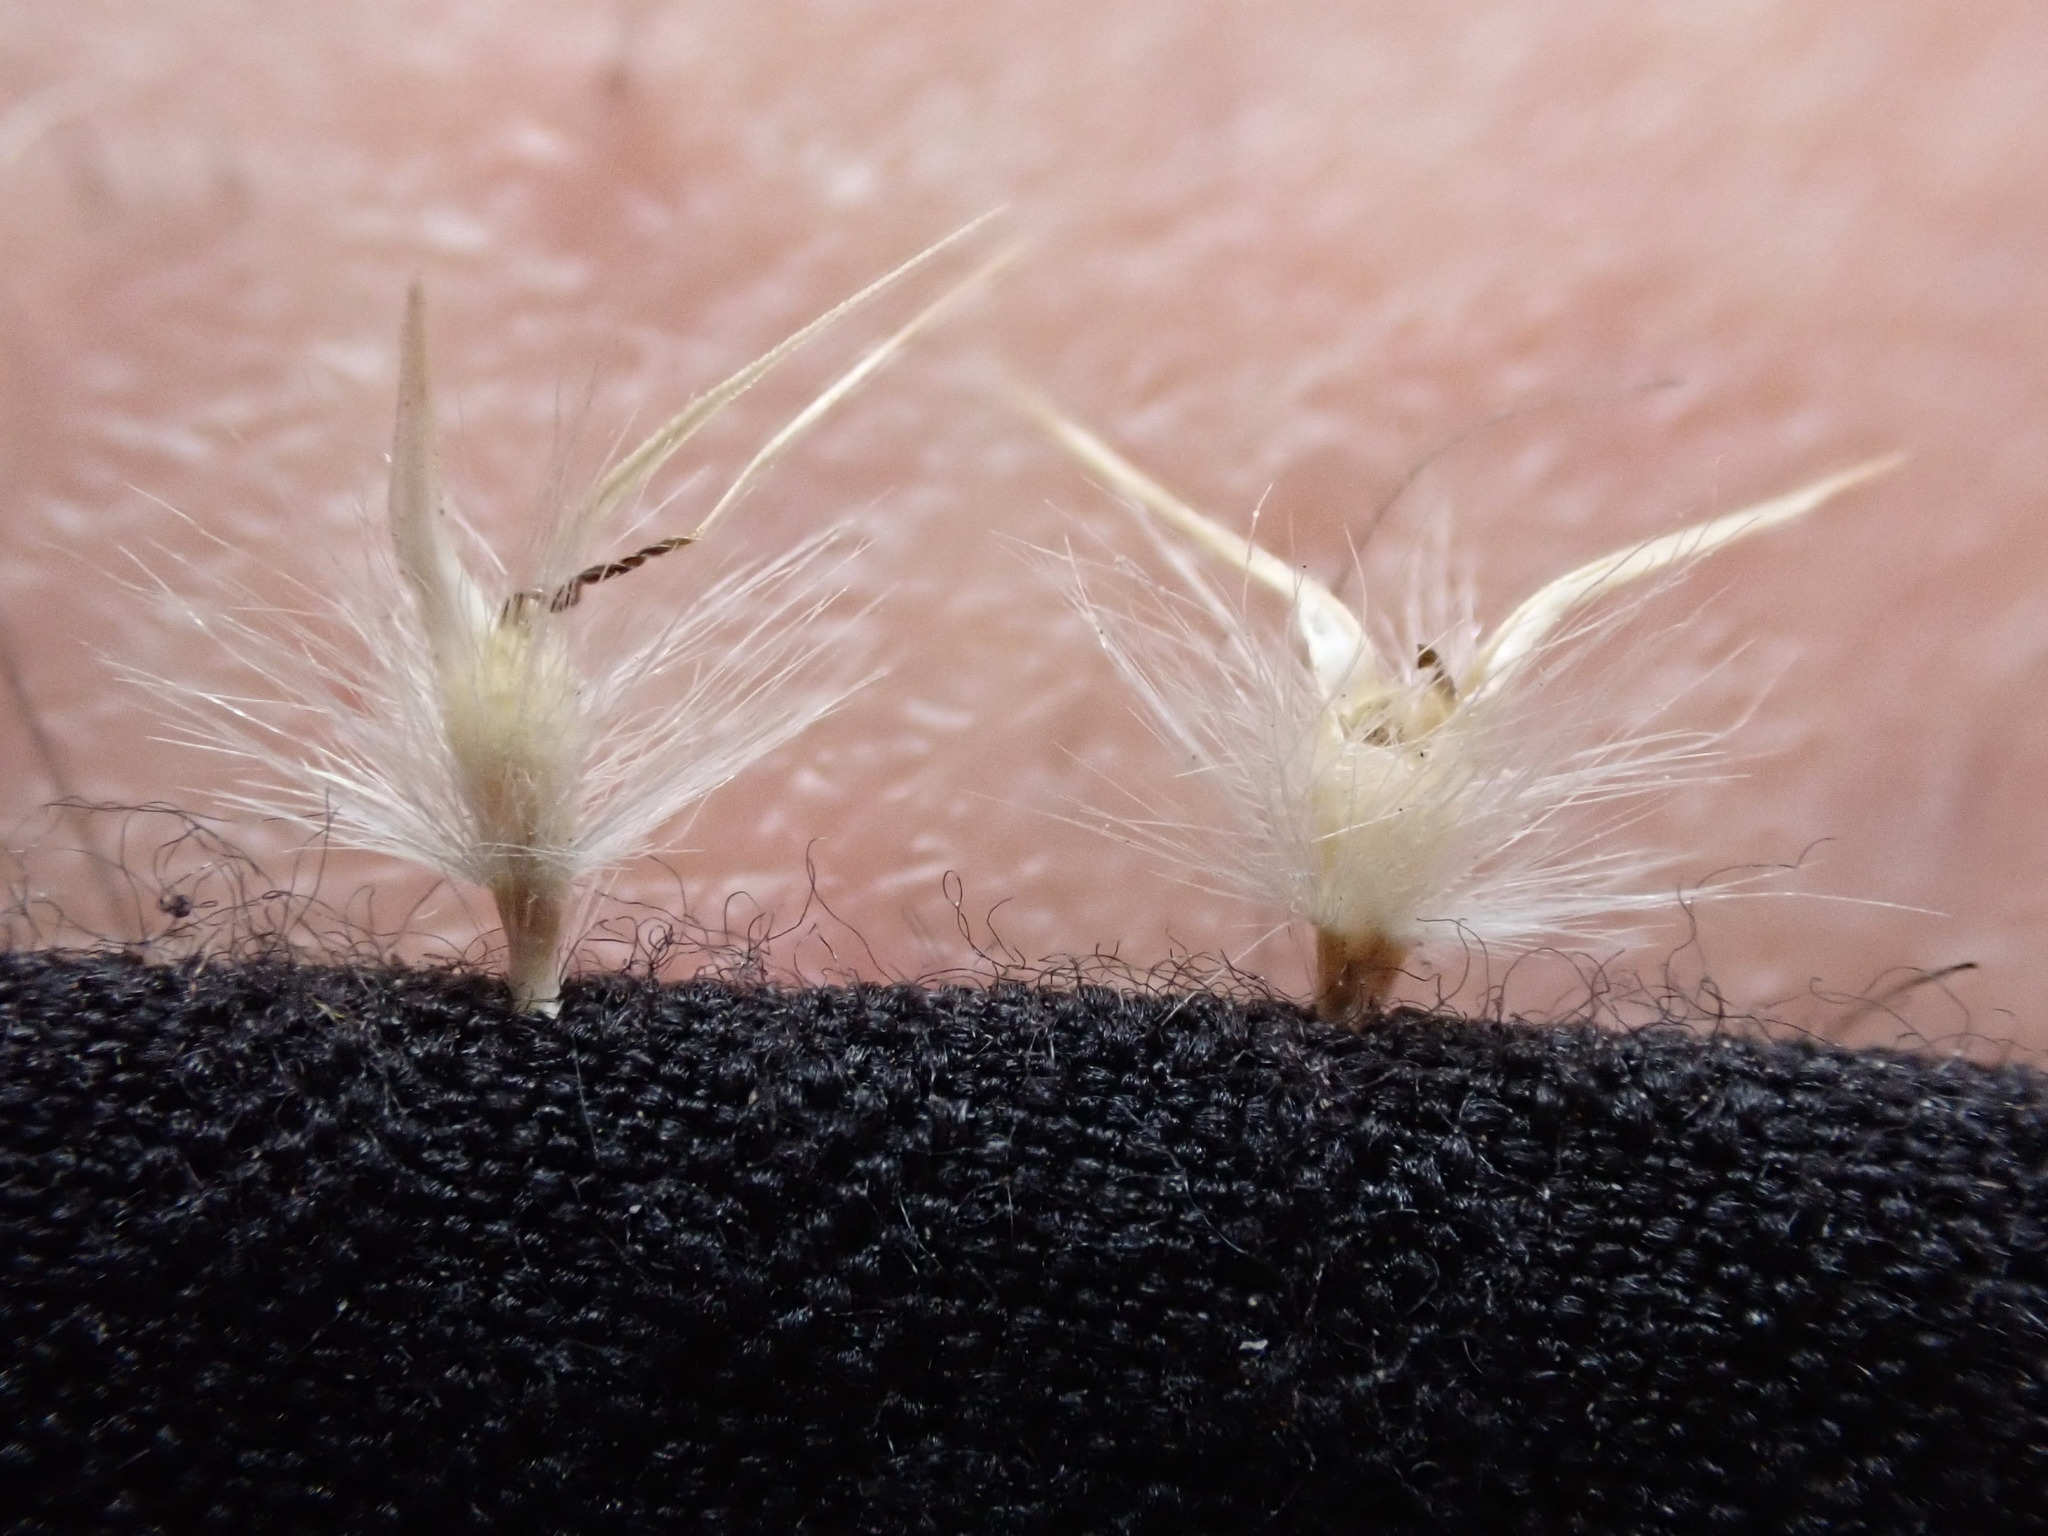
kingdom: Plantae
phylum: Tracheophyta
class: Liliopsida
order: Poales
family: Poaceae
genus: Rytidosperma
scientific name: Rytidosperma geniculatum
